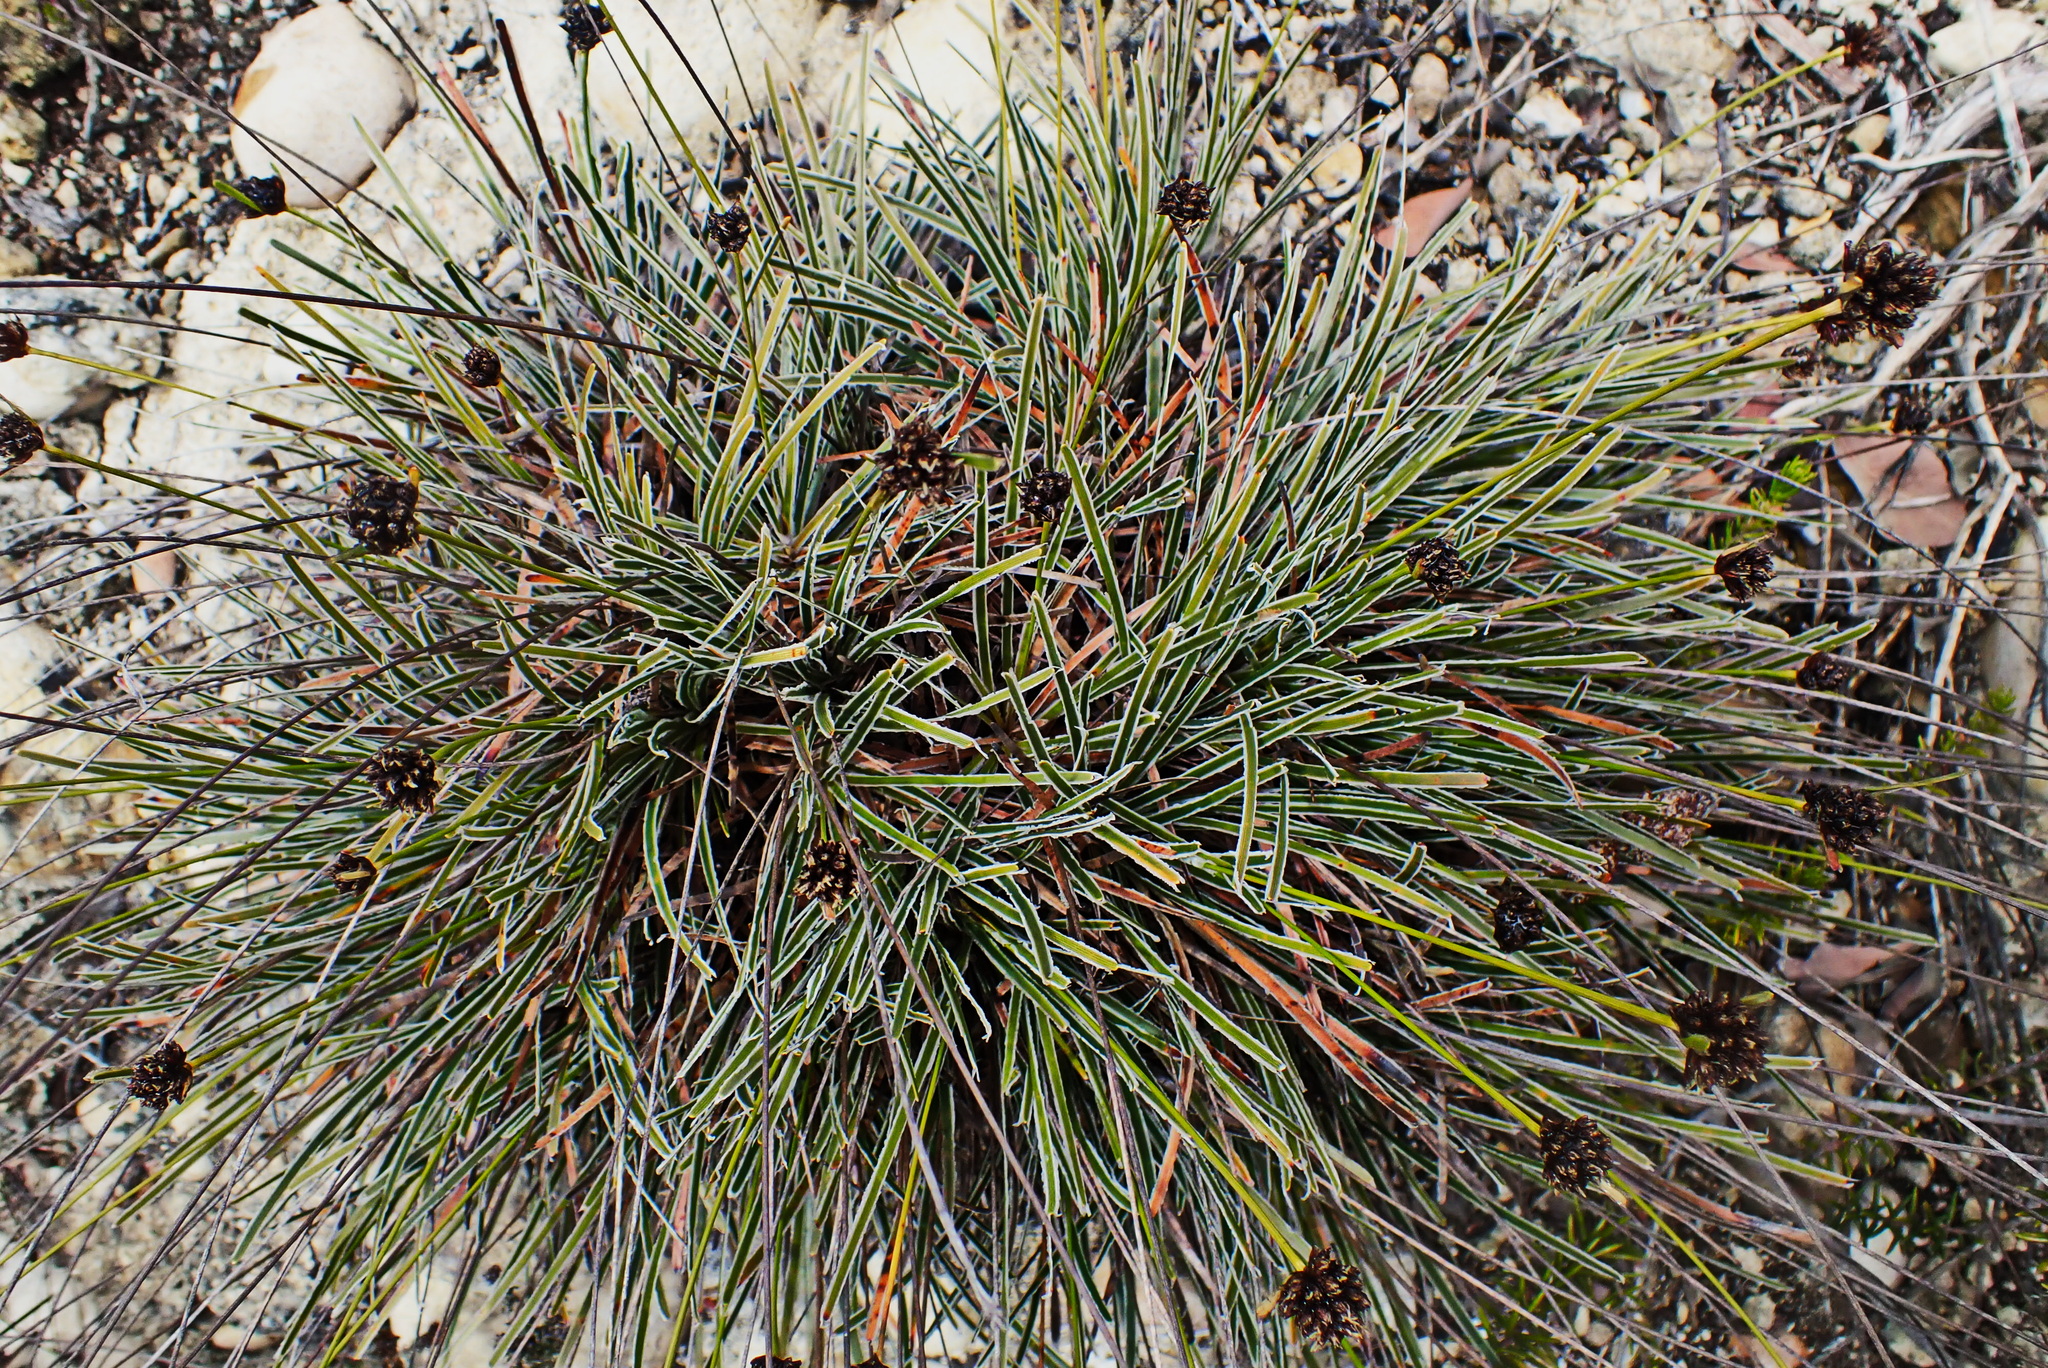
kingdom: Plantae
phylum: Tracheophyta
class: Liliopsida
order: Poales
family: Cyperaceae
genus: Ficinia
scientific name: Ficinia truncata
